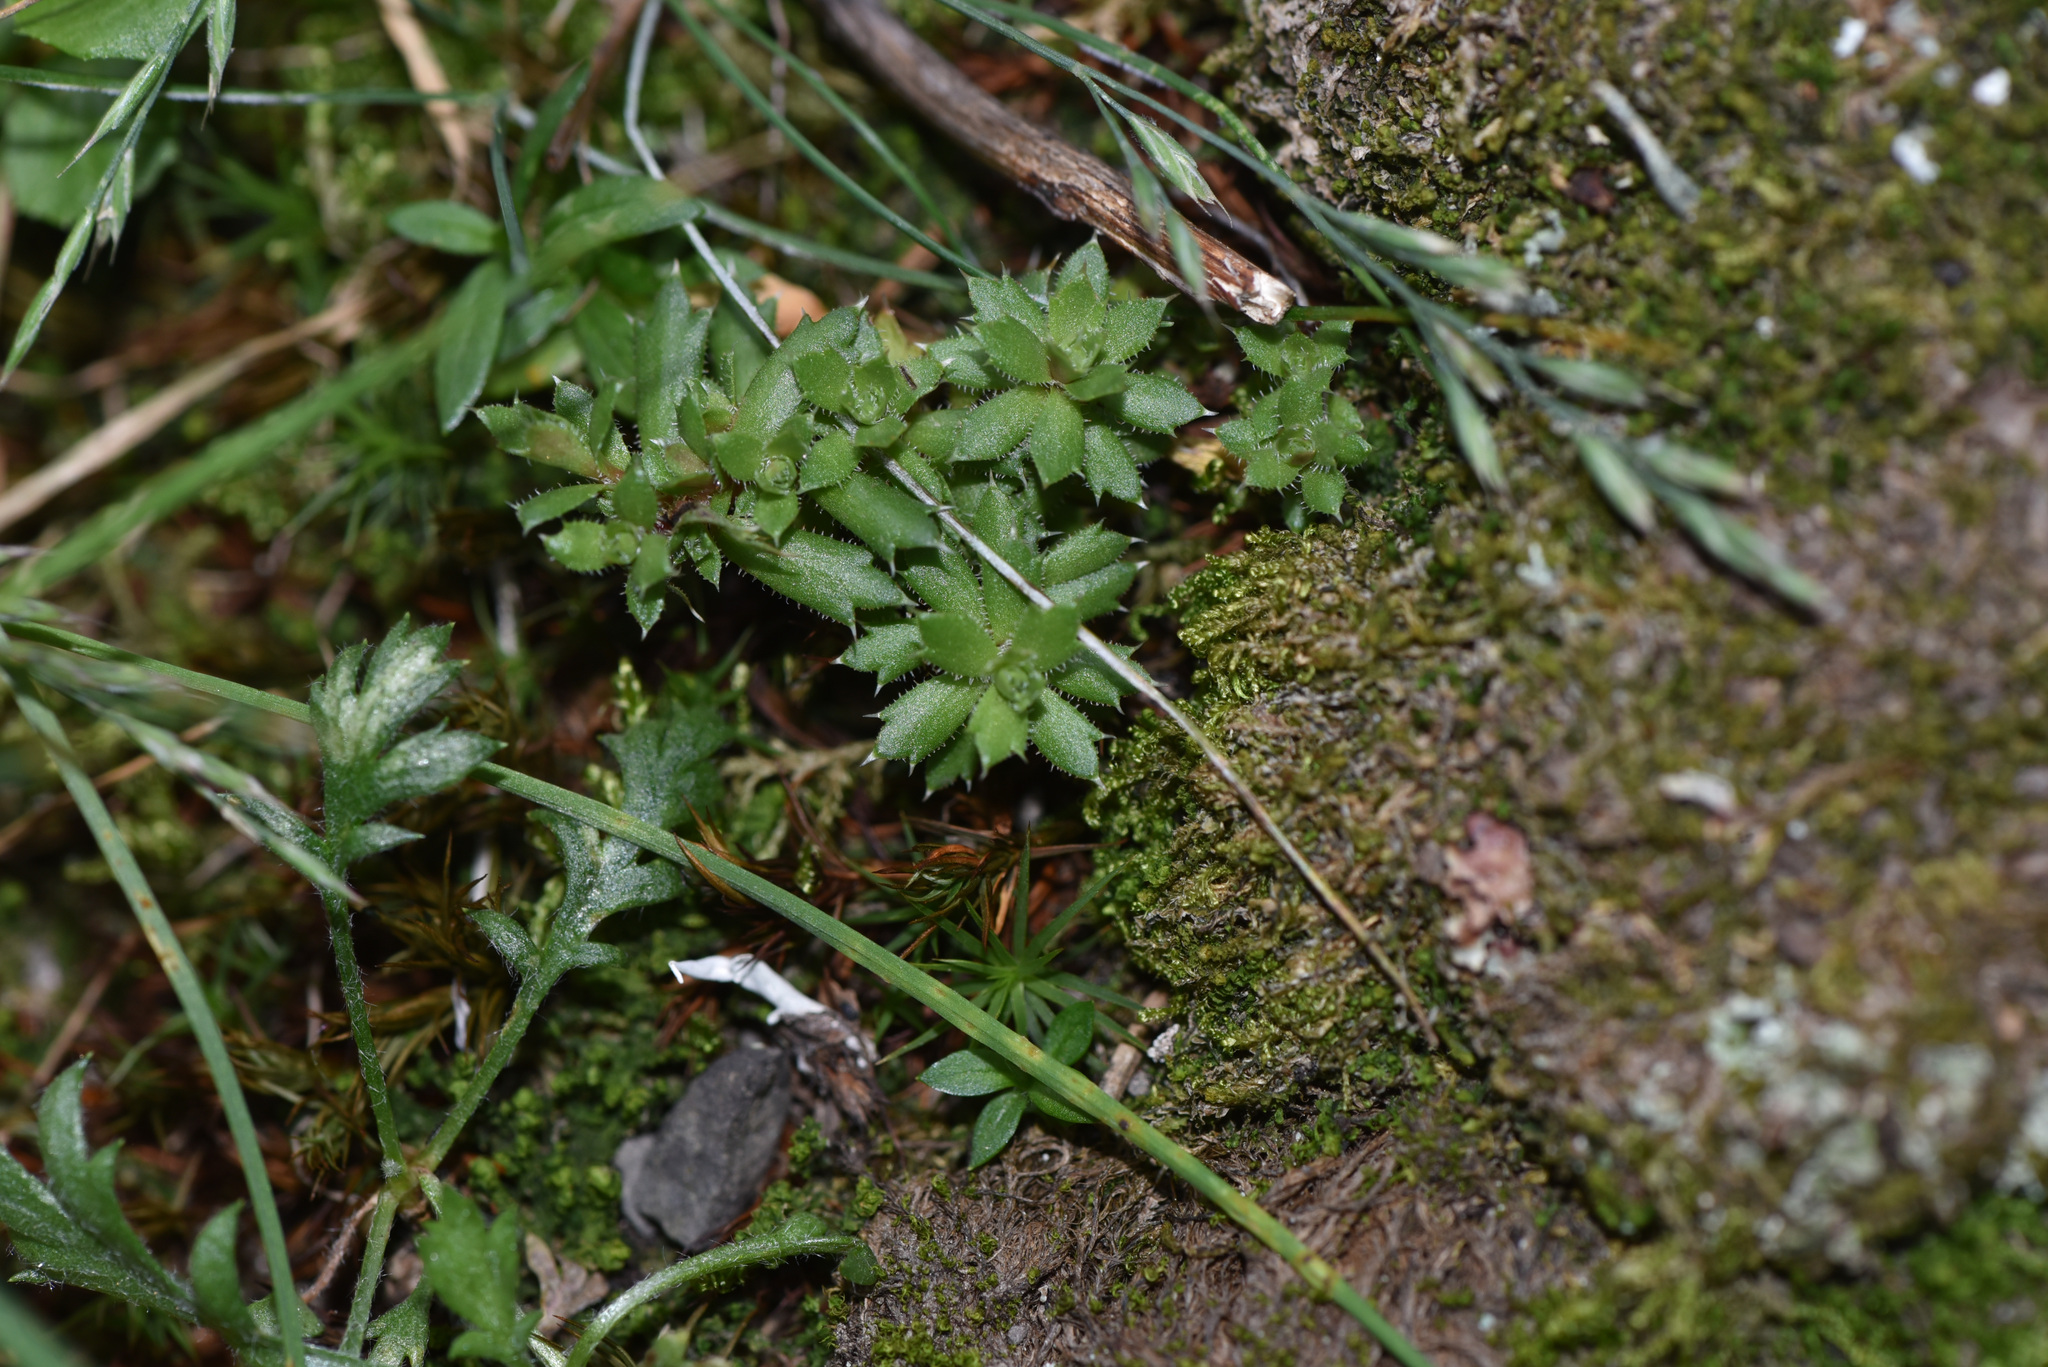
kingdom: Plantae
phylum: Tracheophyta
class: Magnoliopsida
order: Saxifragales
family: Saxifragaceae
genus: Saxifraga
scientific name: Saxifraga tricuspidata
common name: Prickly saxifrage
